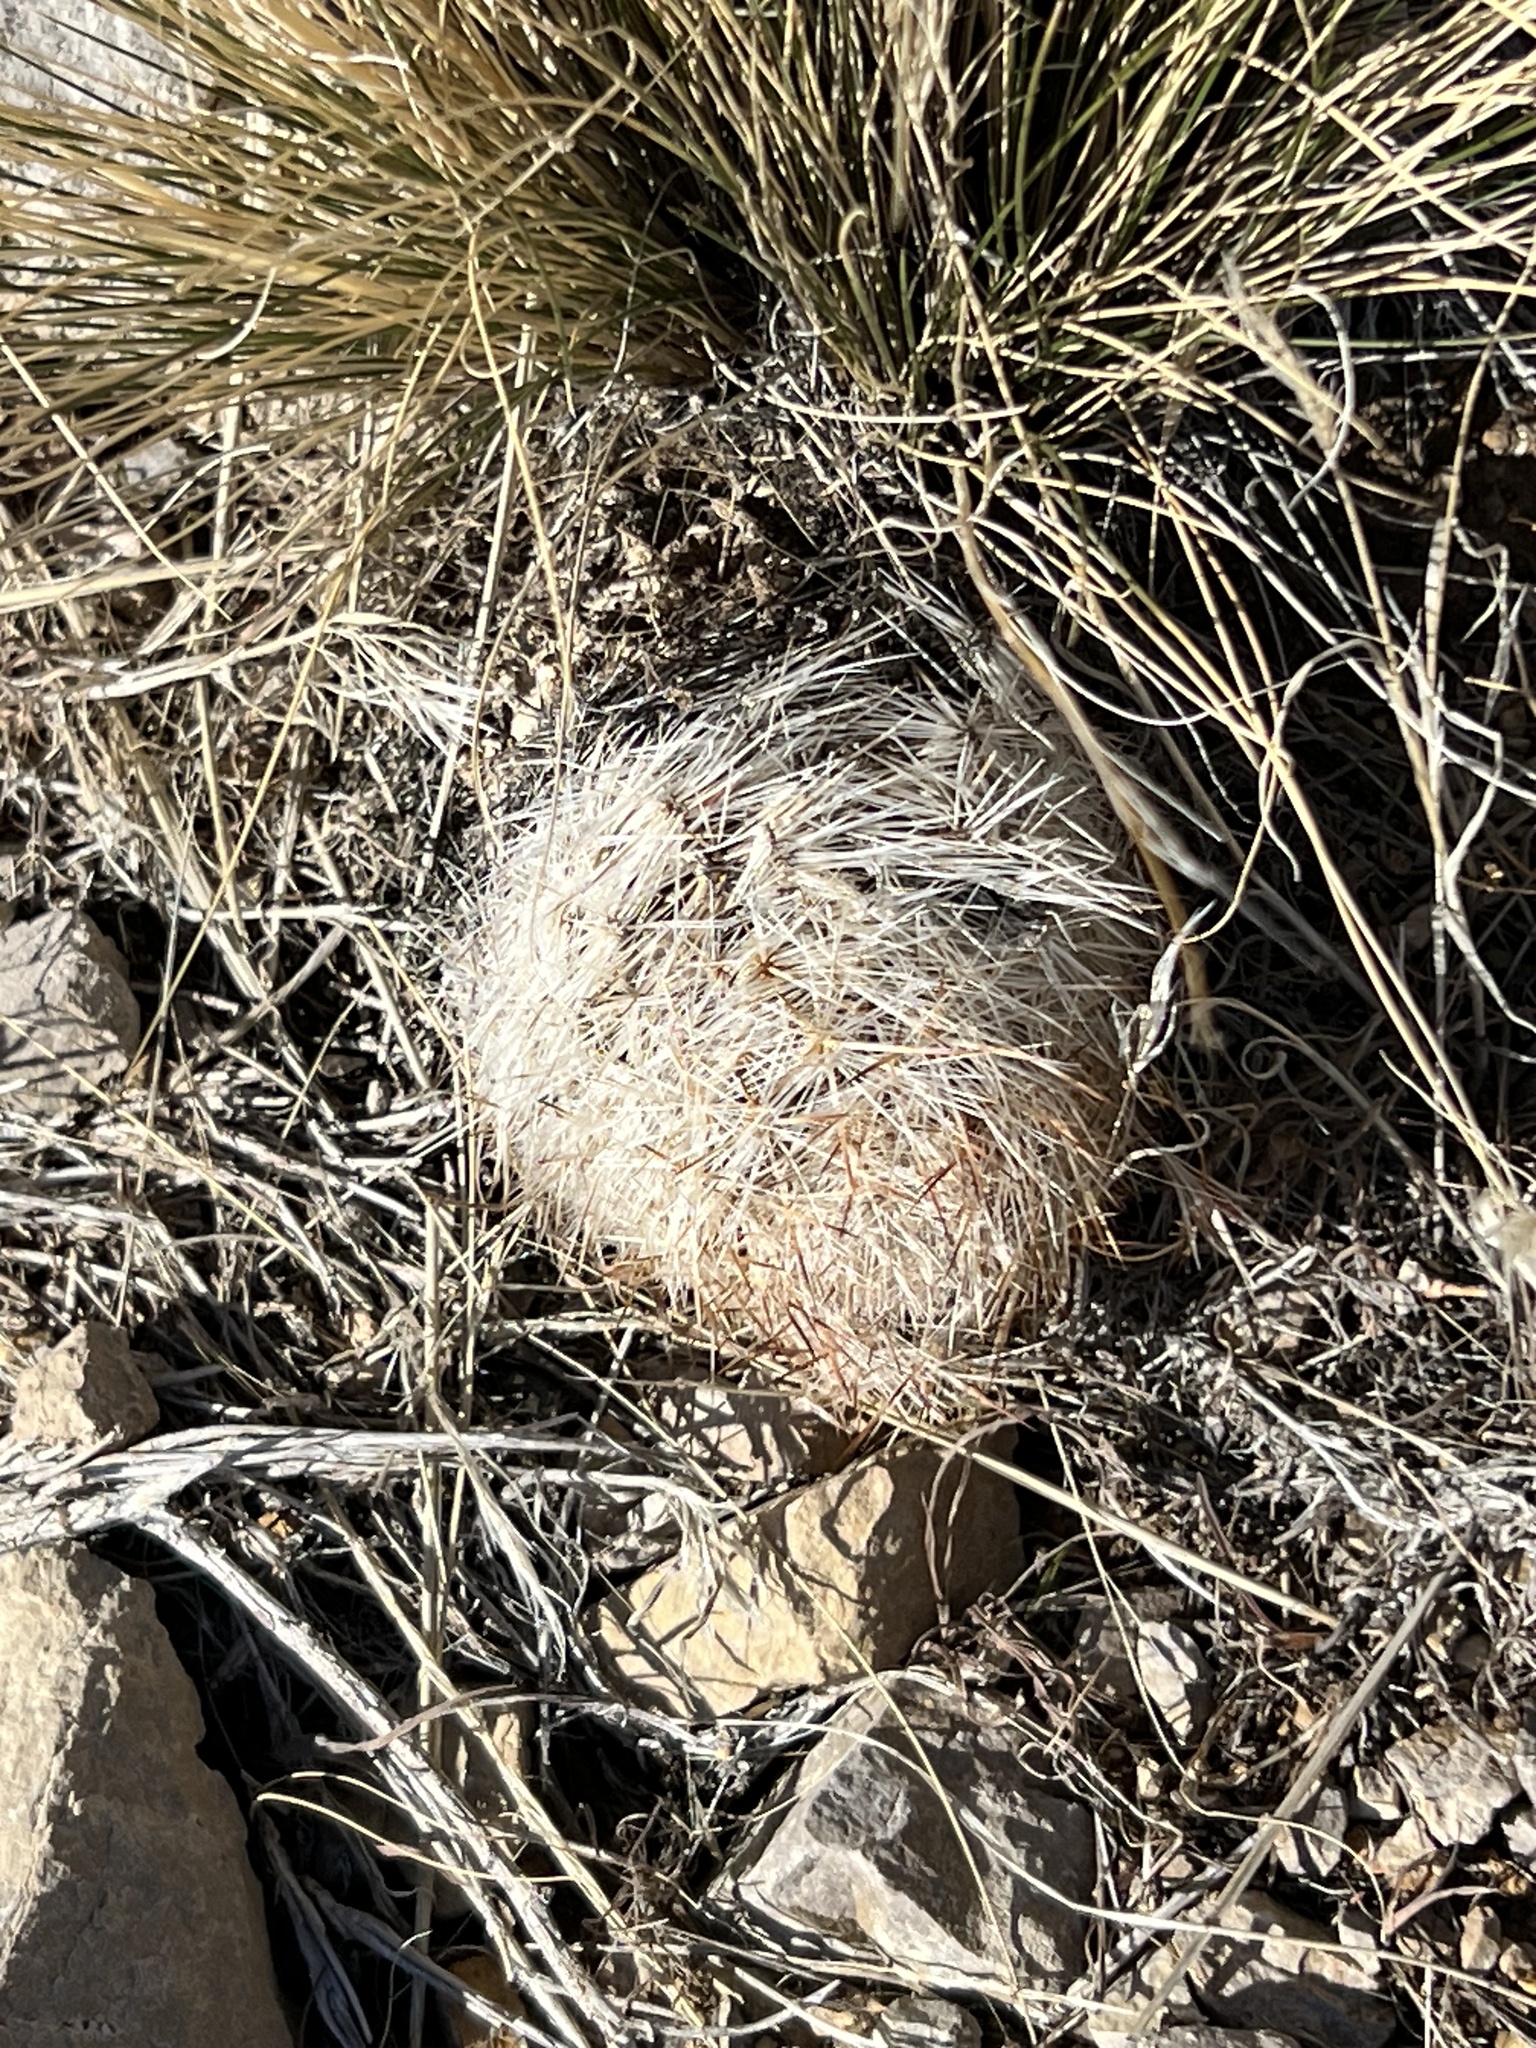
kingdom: Plantae
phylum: Tracheophyta
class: Magnoliopsida
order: Caryophyllales
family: Cactaceae
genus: Pelecyphora
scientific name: Pelecyphora dasyacantha
